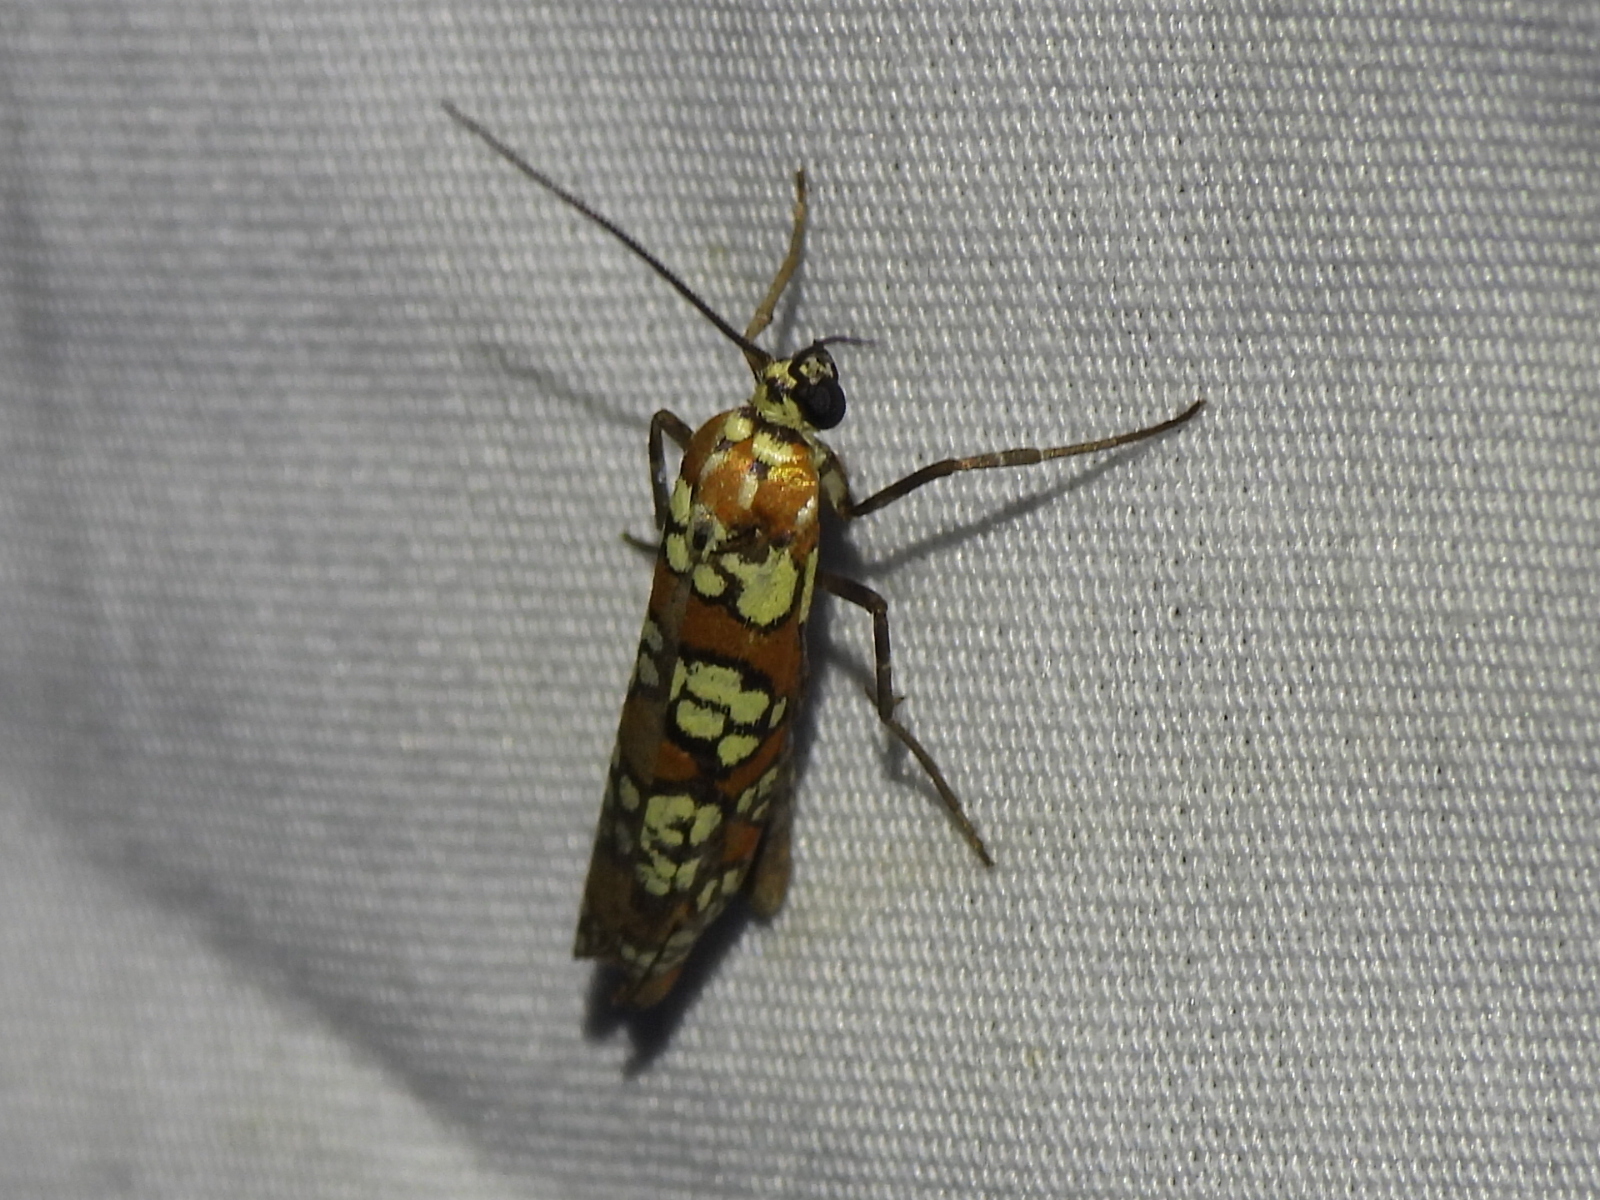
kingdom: Animalia
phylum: Arthropoda
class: Insecta
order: Lepidoptera
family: Attevidae
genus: Atteva
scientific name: Atteva punctella
